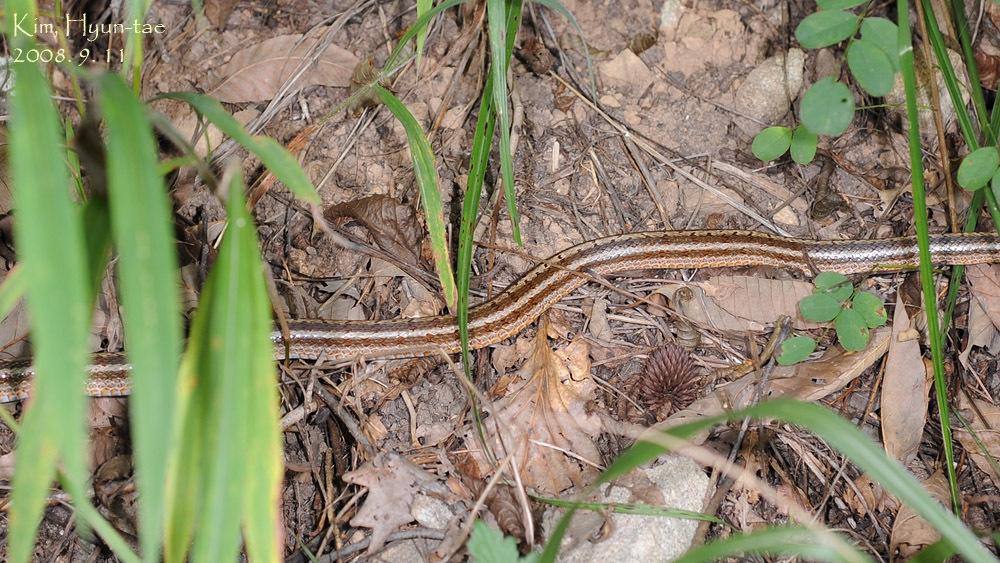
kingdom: Animalia
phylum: Chordata
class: Squamata
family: Colubridae
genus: Elaphe
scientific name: Elaphe dione
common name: Dione ratsnake
